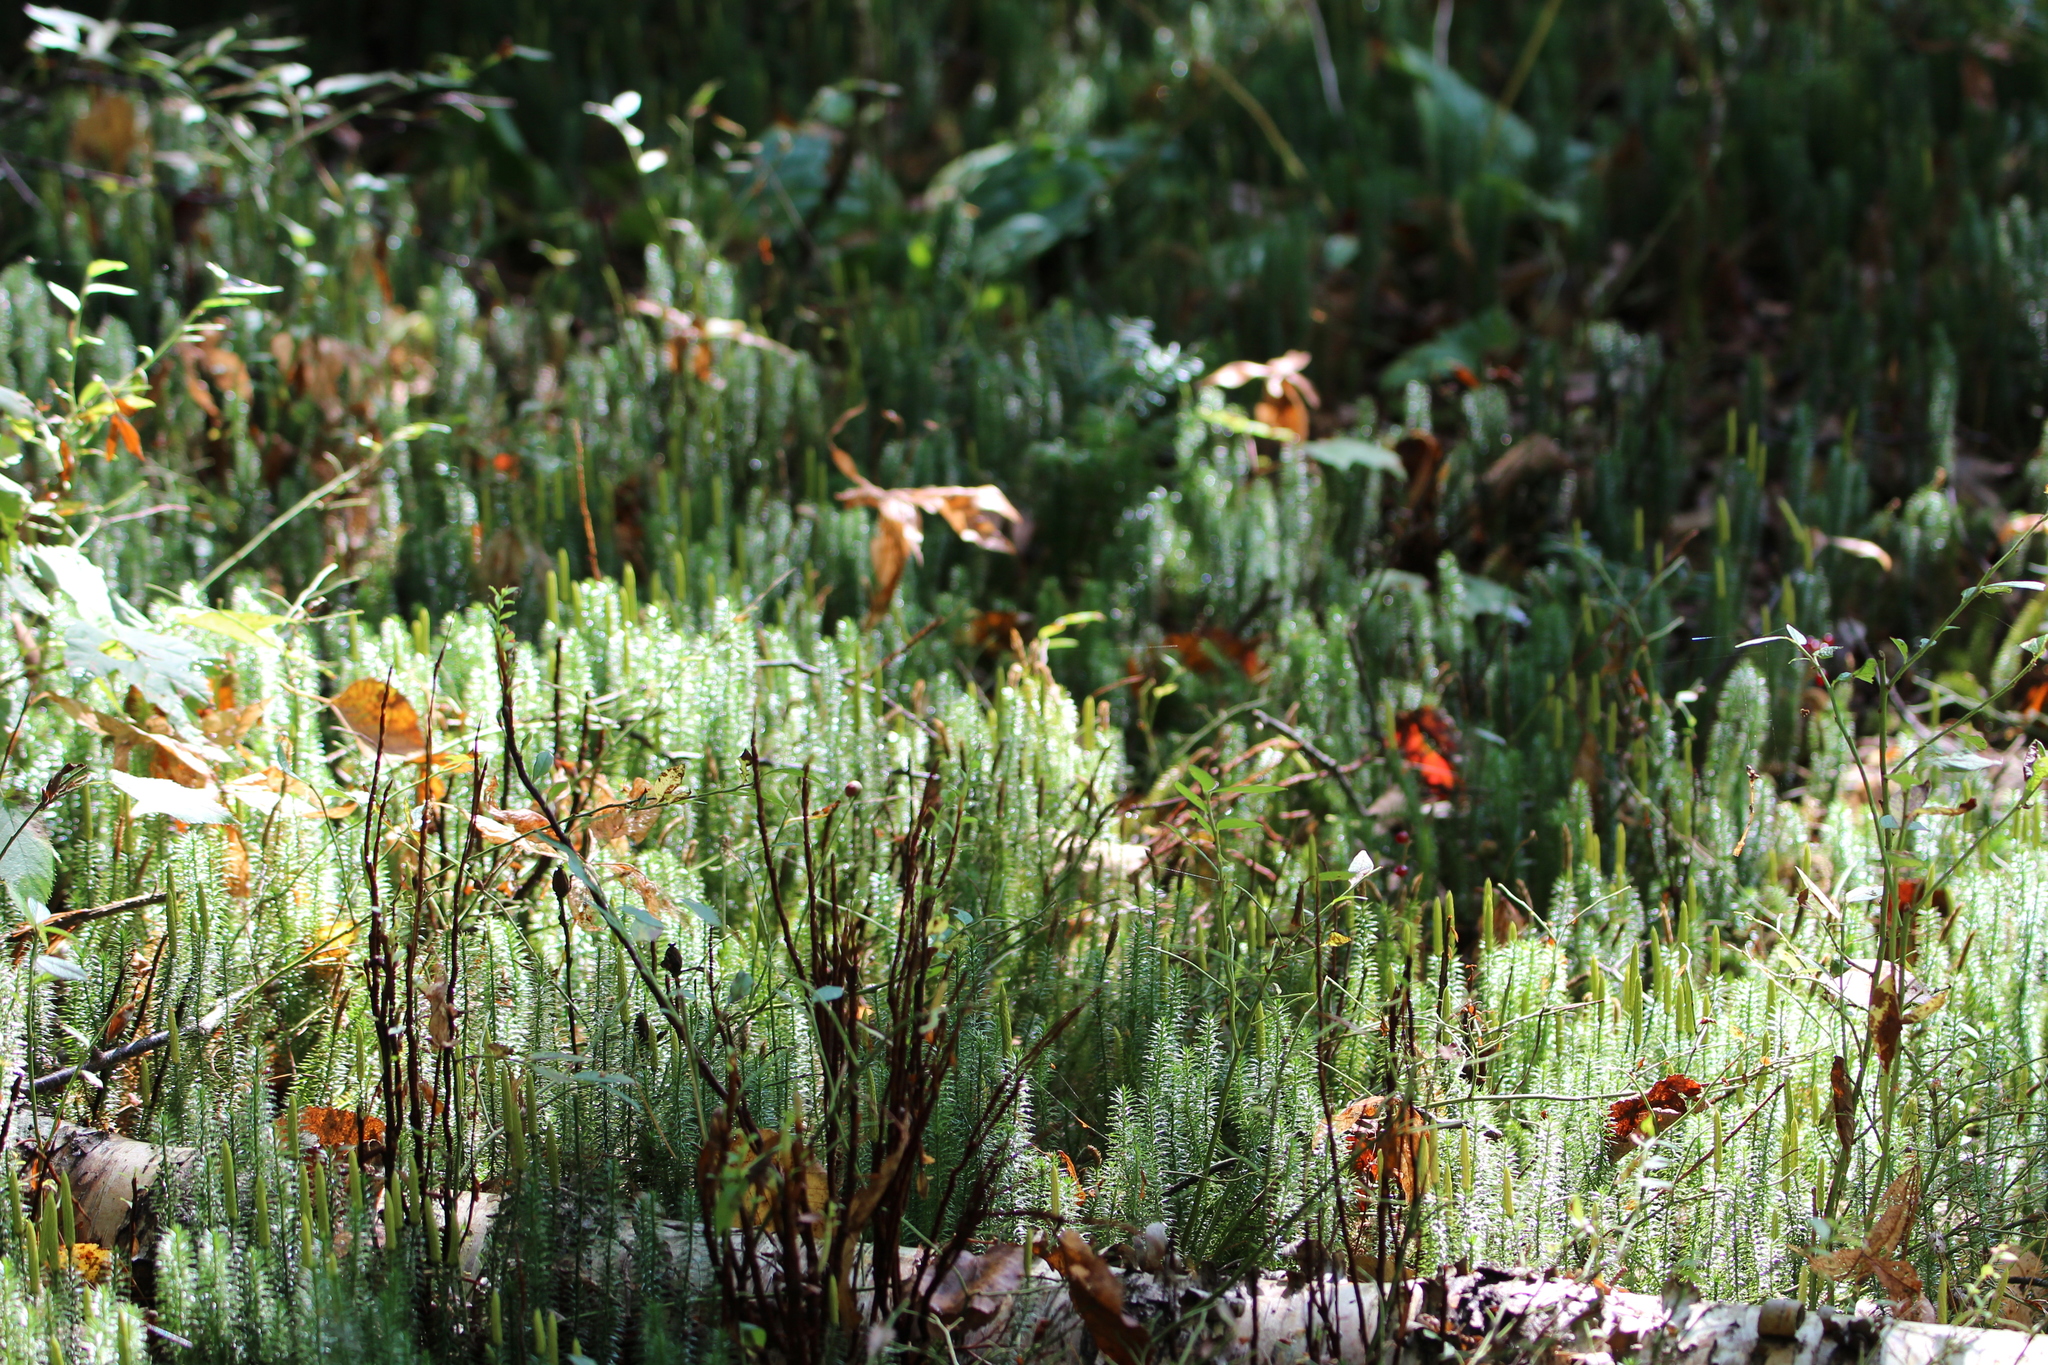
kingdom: Plantae
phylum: Tracheophyta
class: Lycopodiopsida
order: Lycopodiales
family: Lycopodiaceae
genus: Spinulum
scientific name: Spinulum annotinum
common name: Interrupted club-moss
